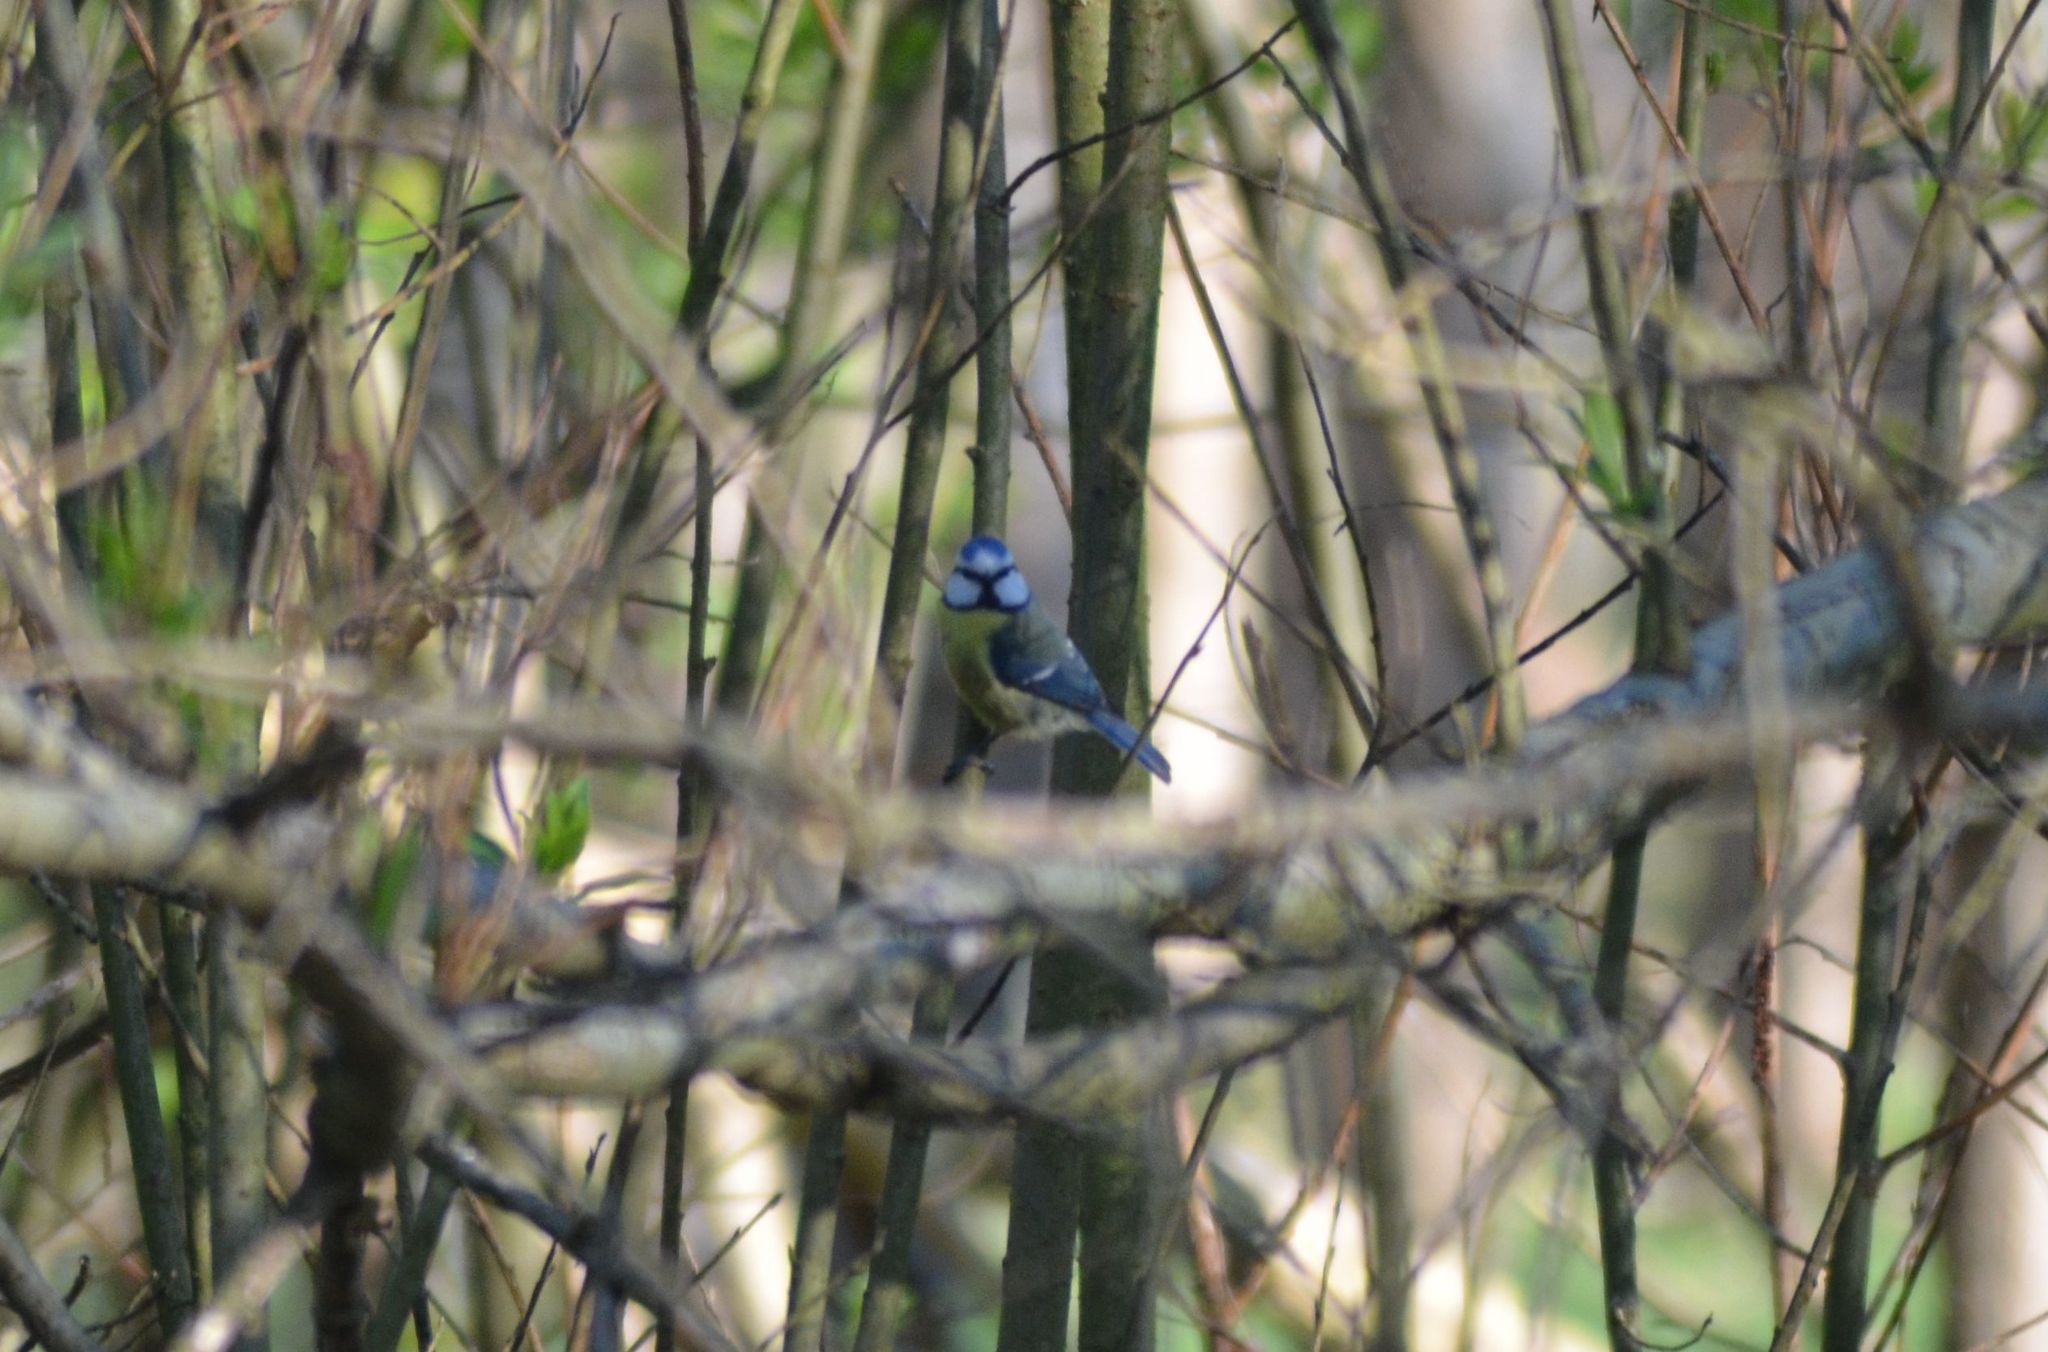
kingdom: Animalia
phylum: Chordata
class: Aves
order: Passeriformes
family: Paridae
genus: Cyanistes
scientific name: Cyanistes caeruleus
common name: Eurasian blue tit
